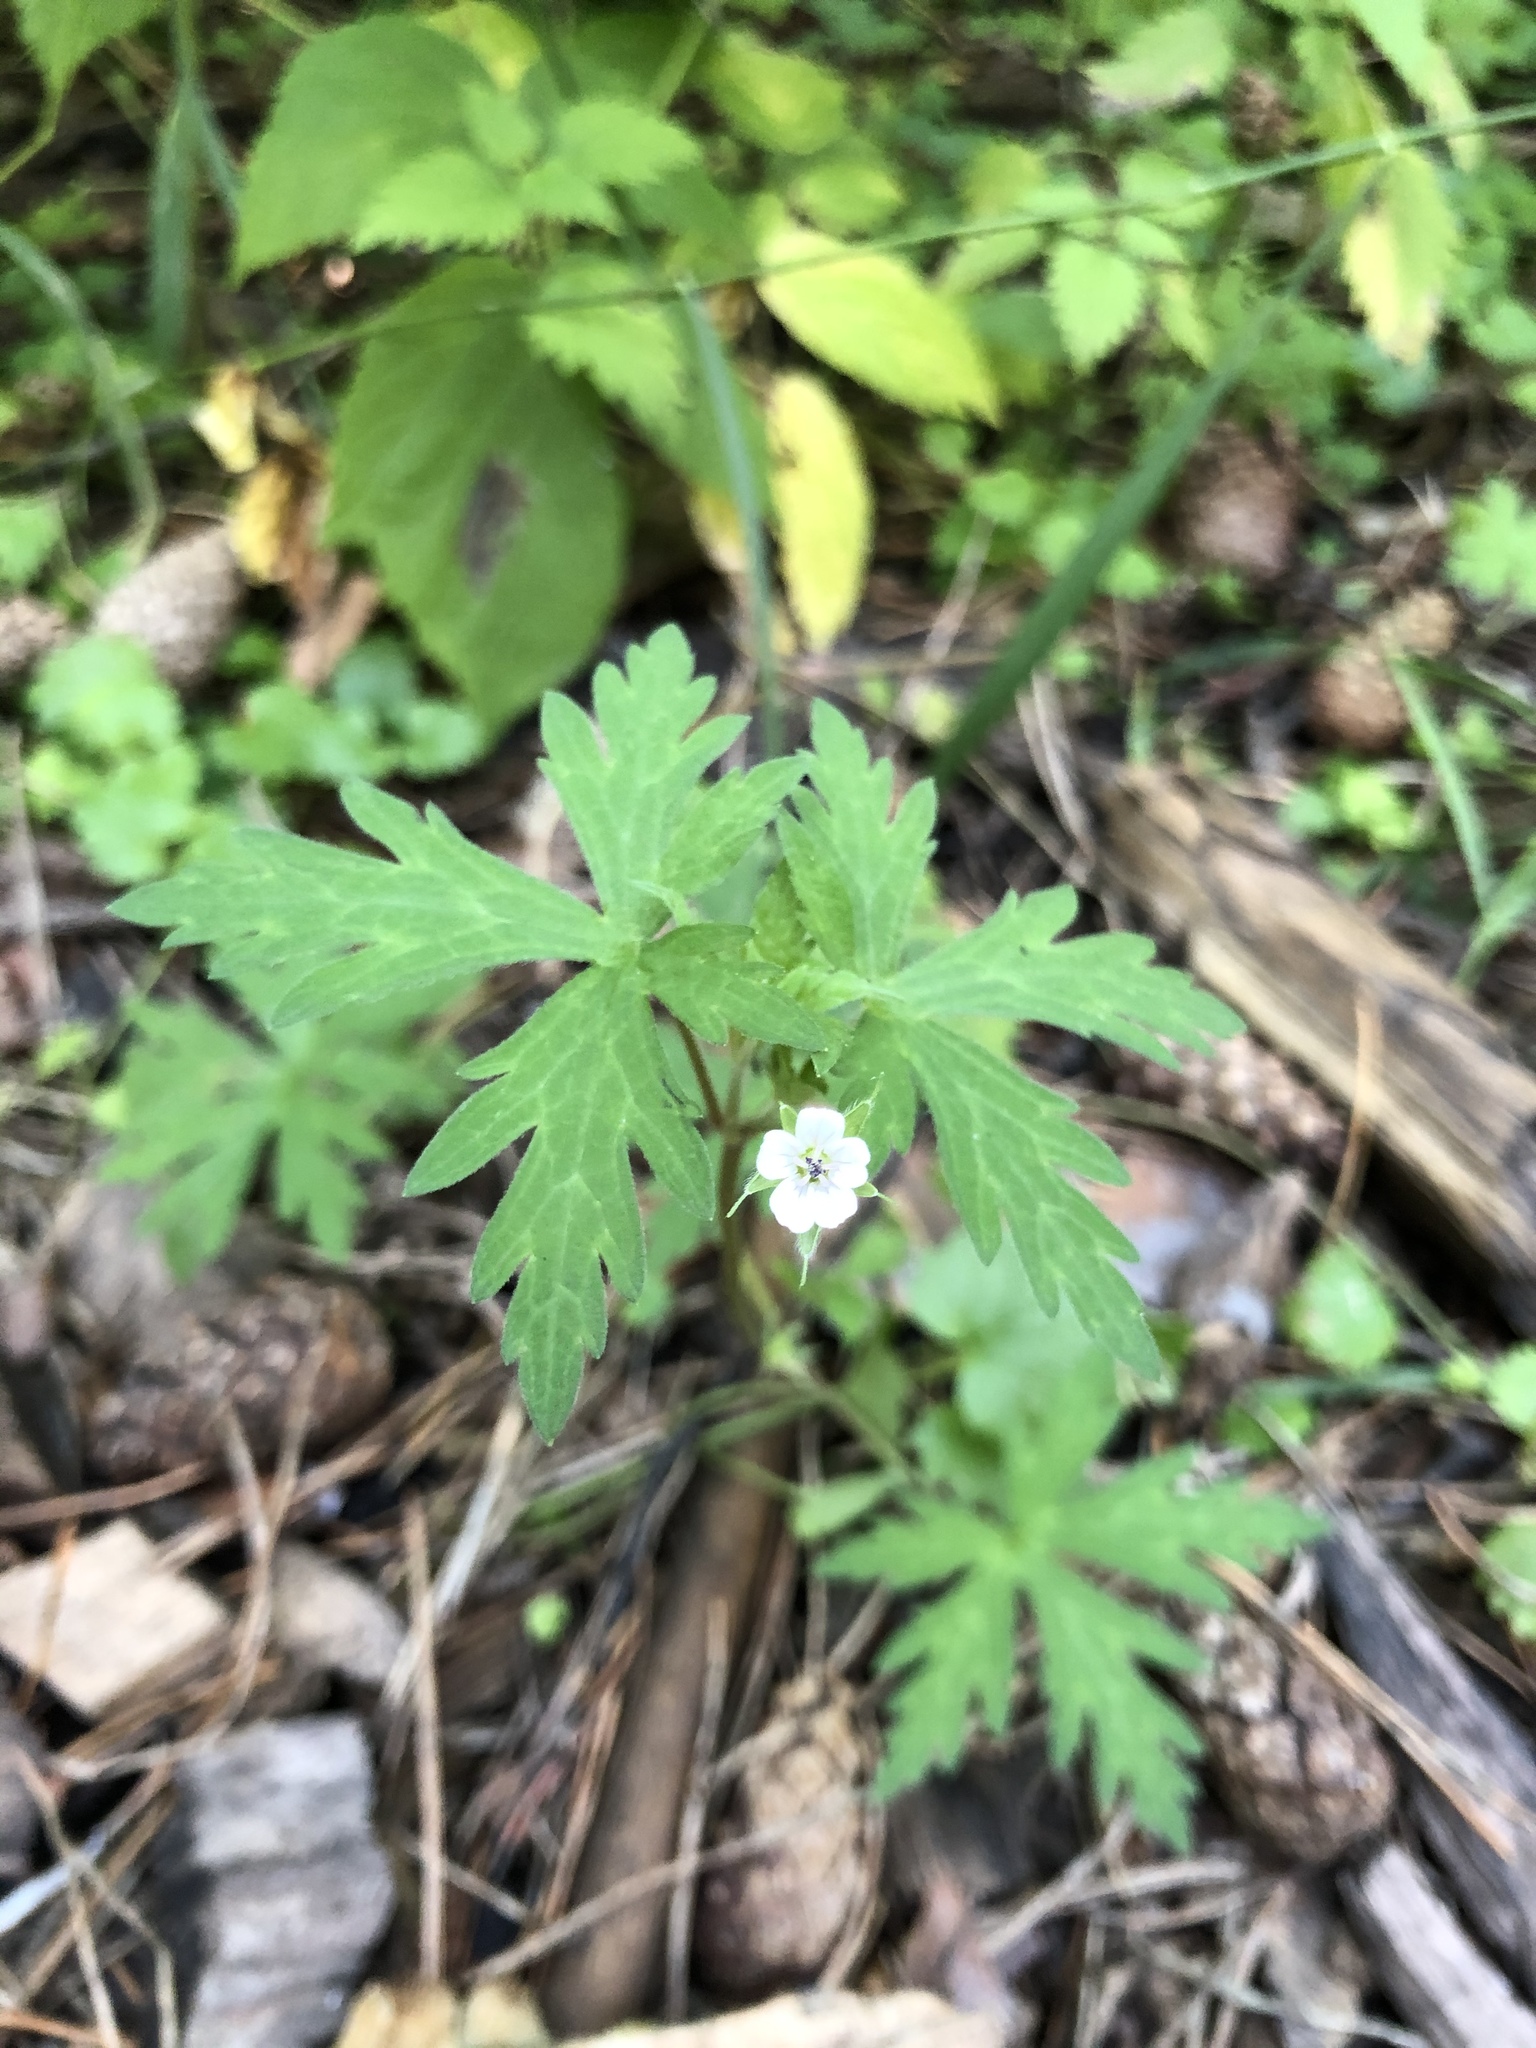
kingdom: Plantae
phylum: Tracheophyta
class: Magnoliopsida
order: Geraniales
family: Geraniaceae
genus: Geranium
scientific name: Geranium sibiricum
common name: Siberian crane's-bill
